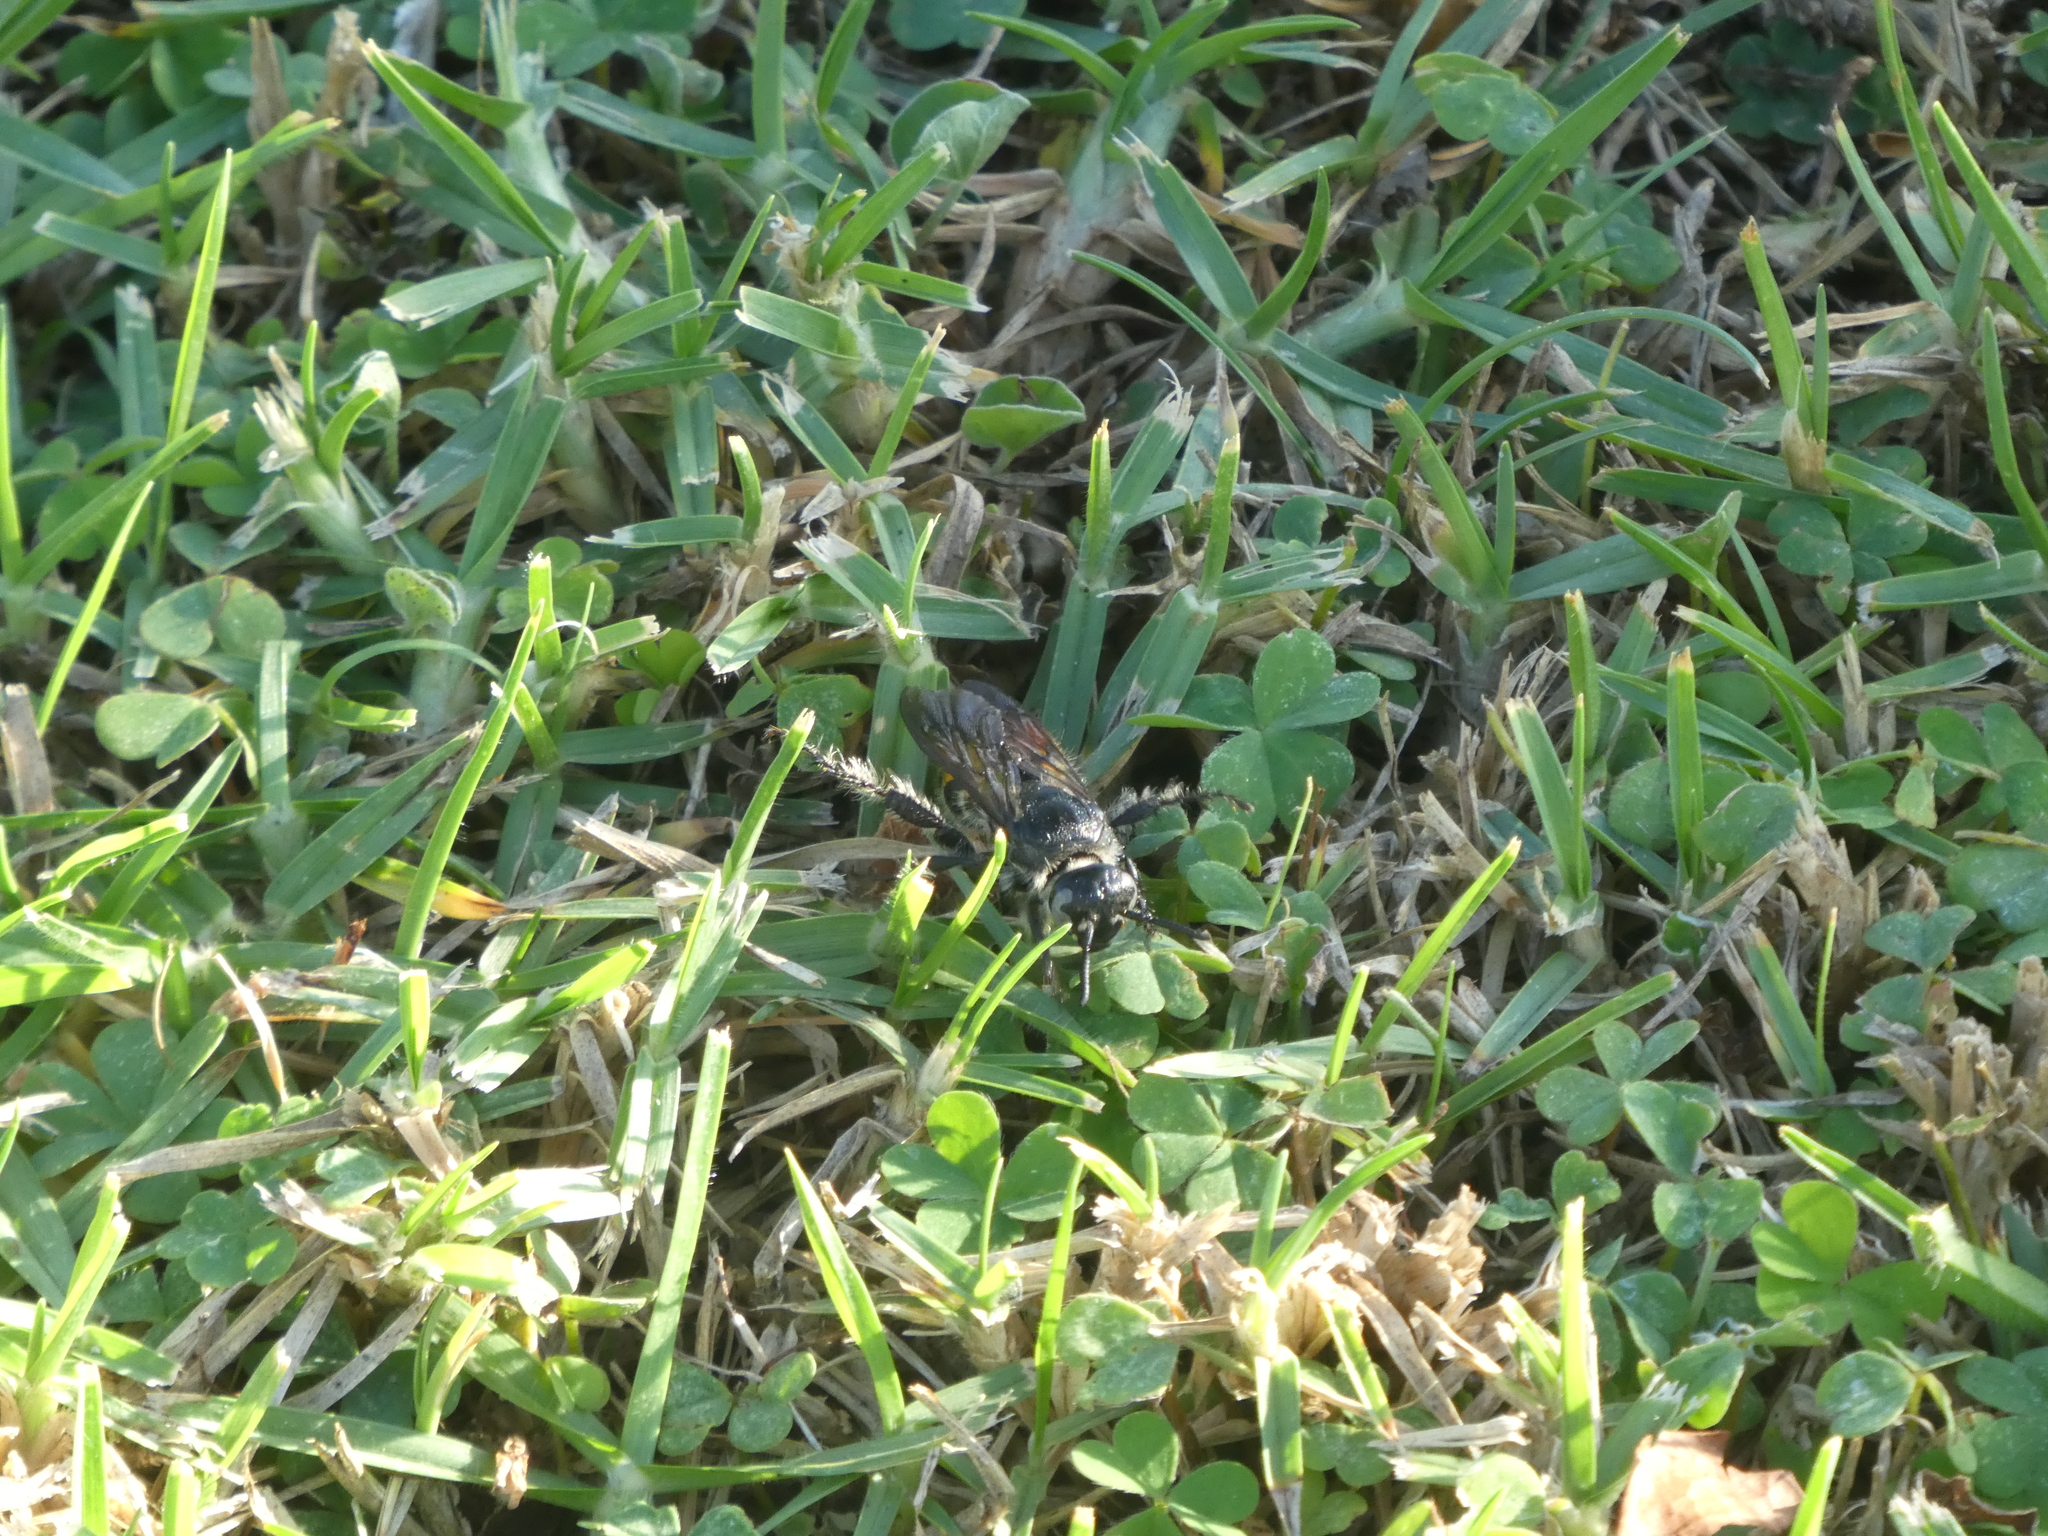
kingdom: Animalia
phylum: Arthropoda
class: Insecta
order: Hymenoptera
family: Scoliidae
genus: Dielis
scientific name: Dielis tolteca
